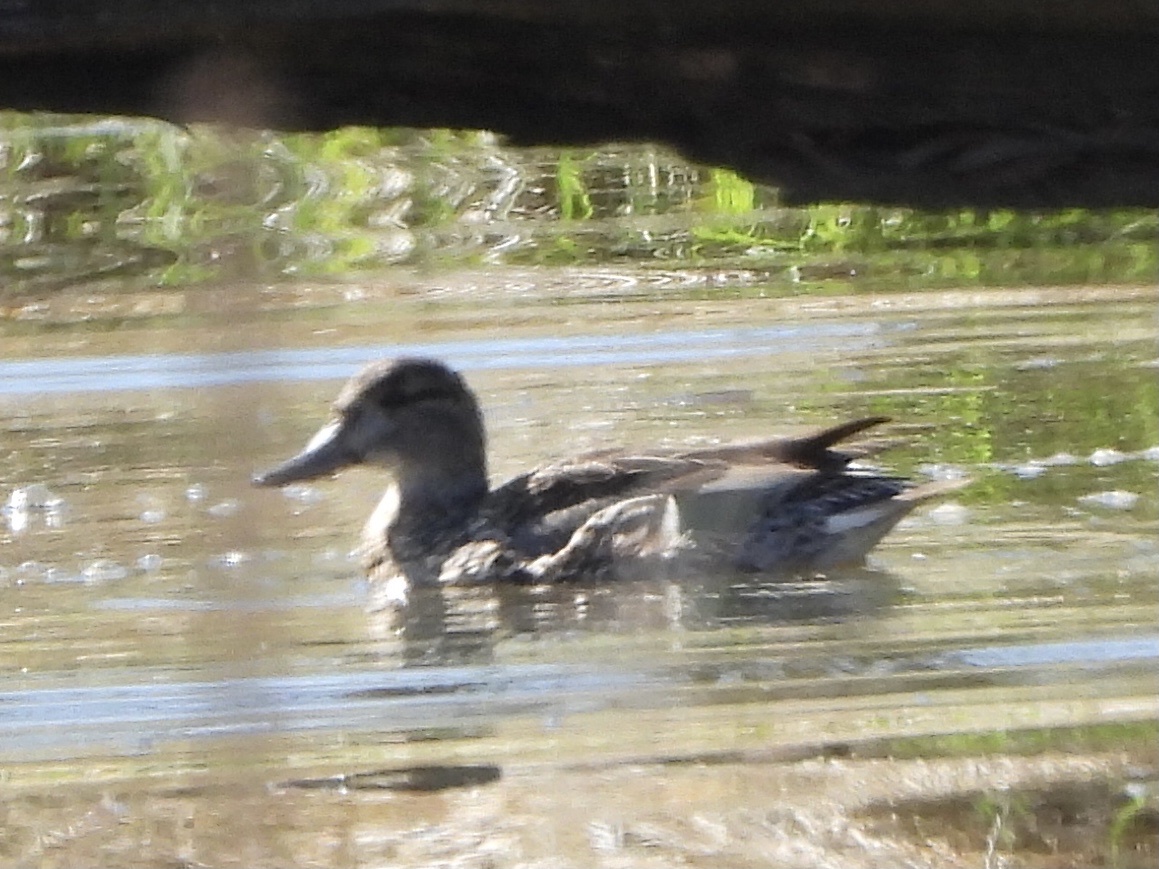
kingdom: Animalia
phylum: Chordata
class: Aves
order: Anseriformes
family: Anatidae
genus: Anas
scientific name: Anas crecca
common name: Eurasian teal
